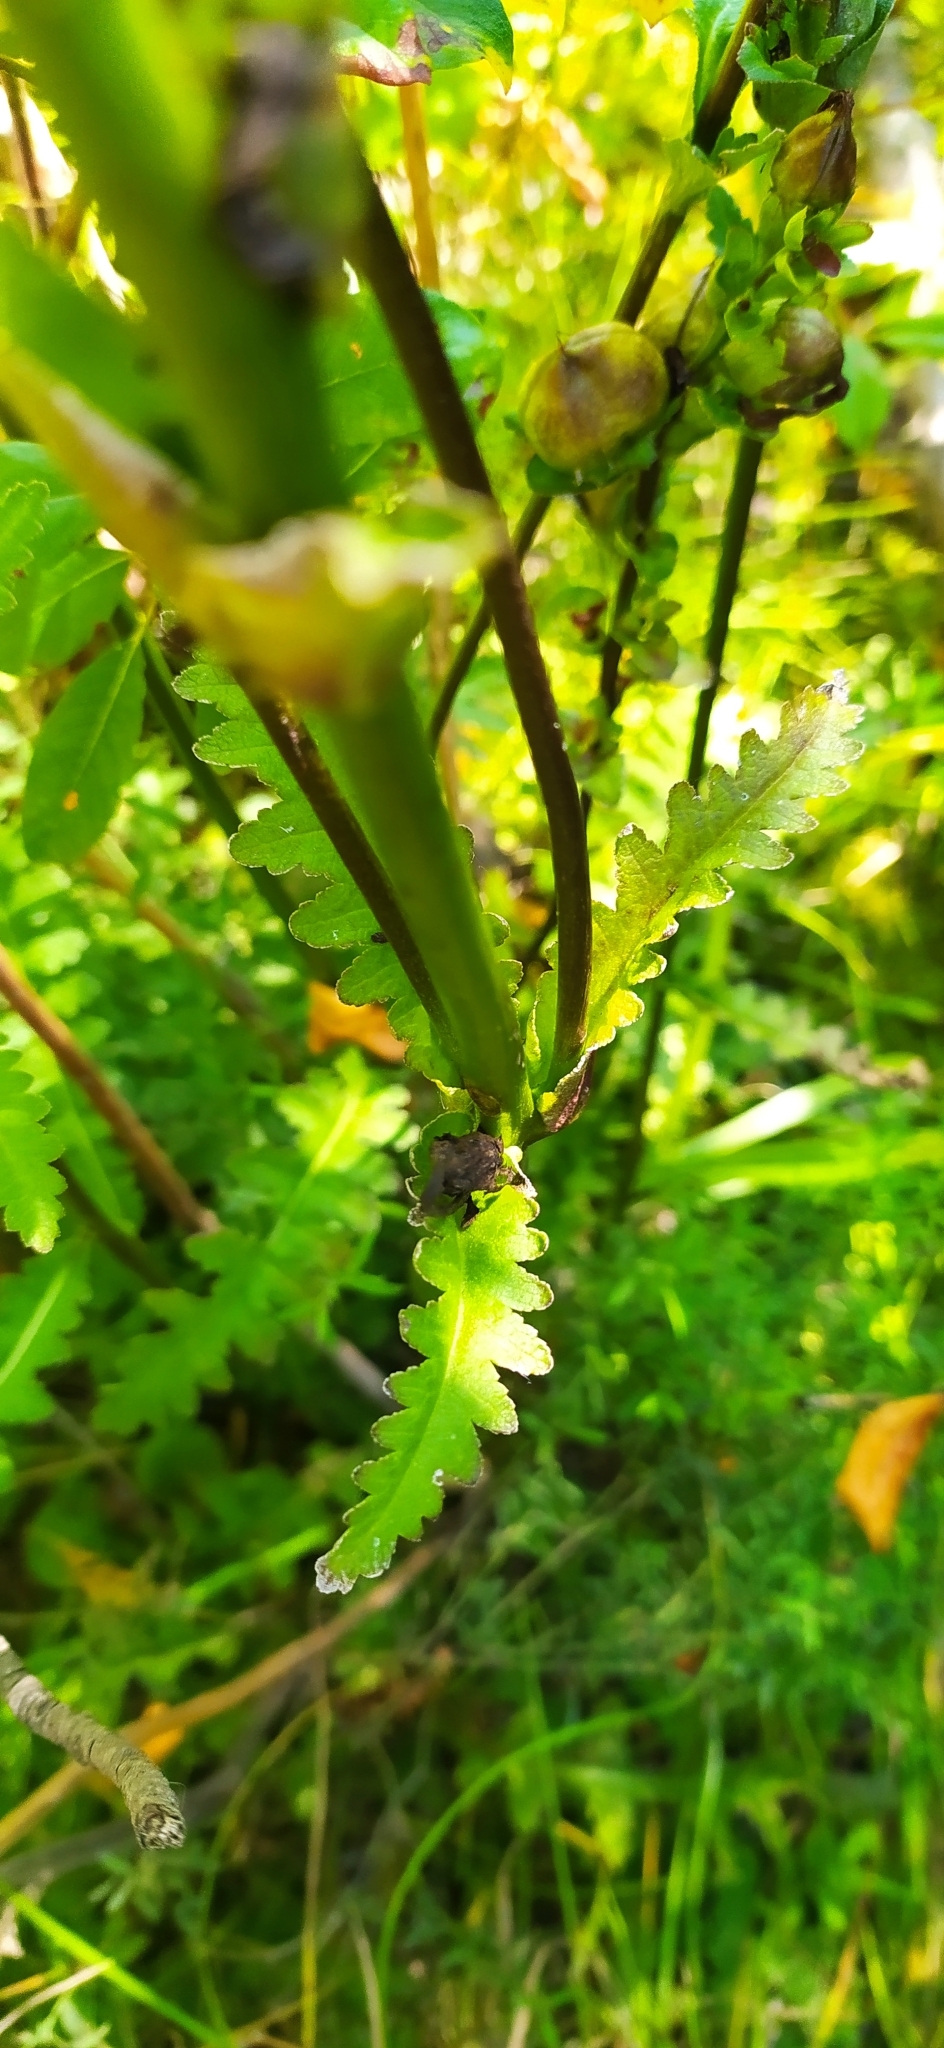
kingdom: Plantae
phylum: Tracheophyta
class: Magnoliopsida
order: Lamiales
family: Orobanchaceae
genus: Pedicularis
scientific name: Pedicularis sceptrum-carolinum
